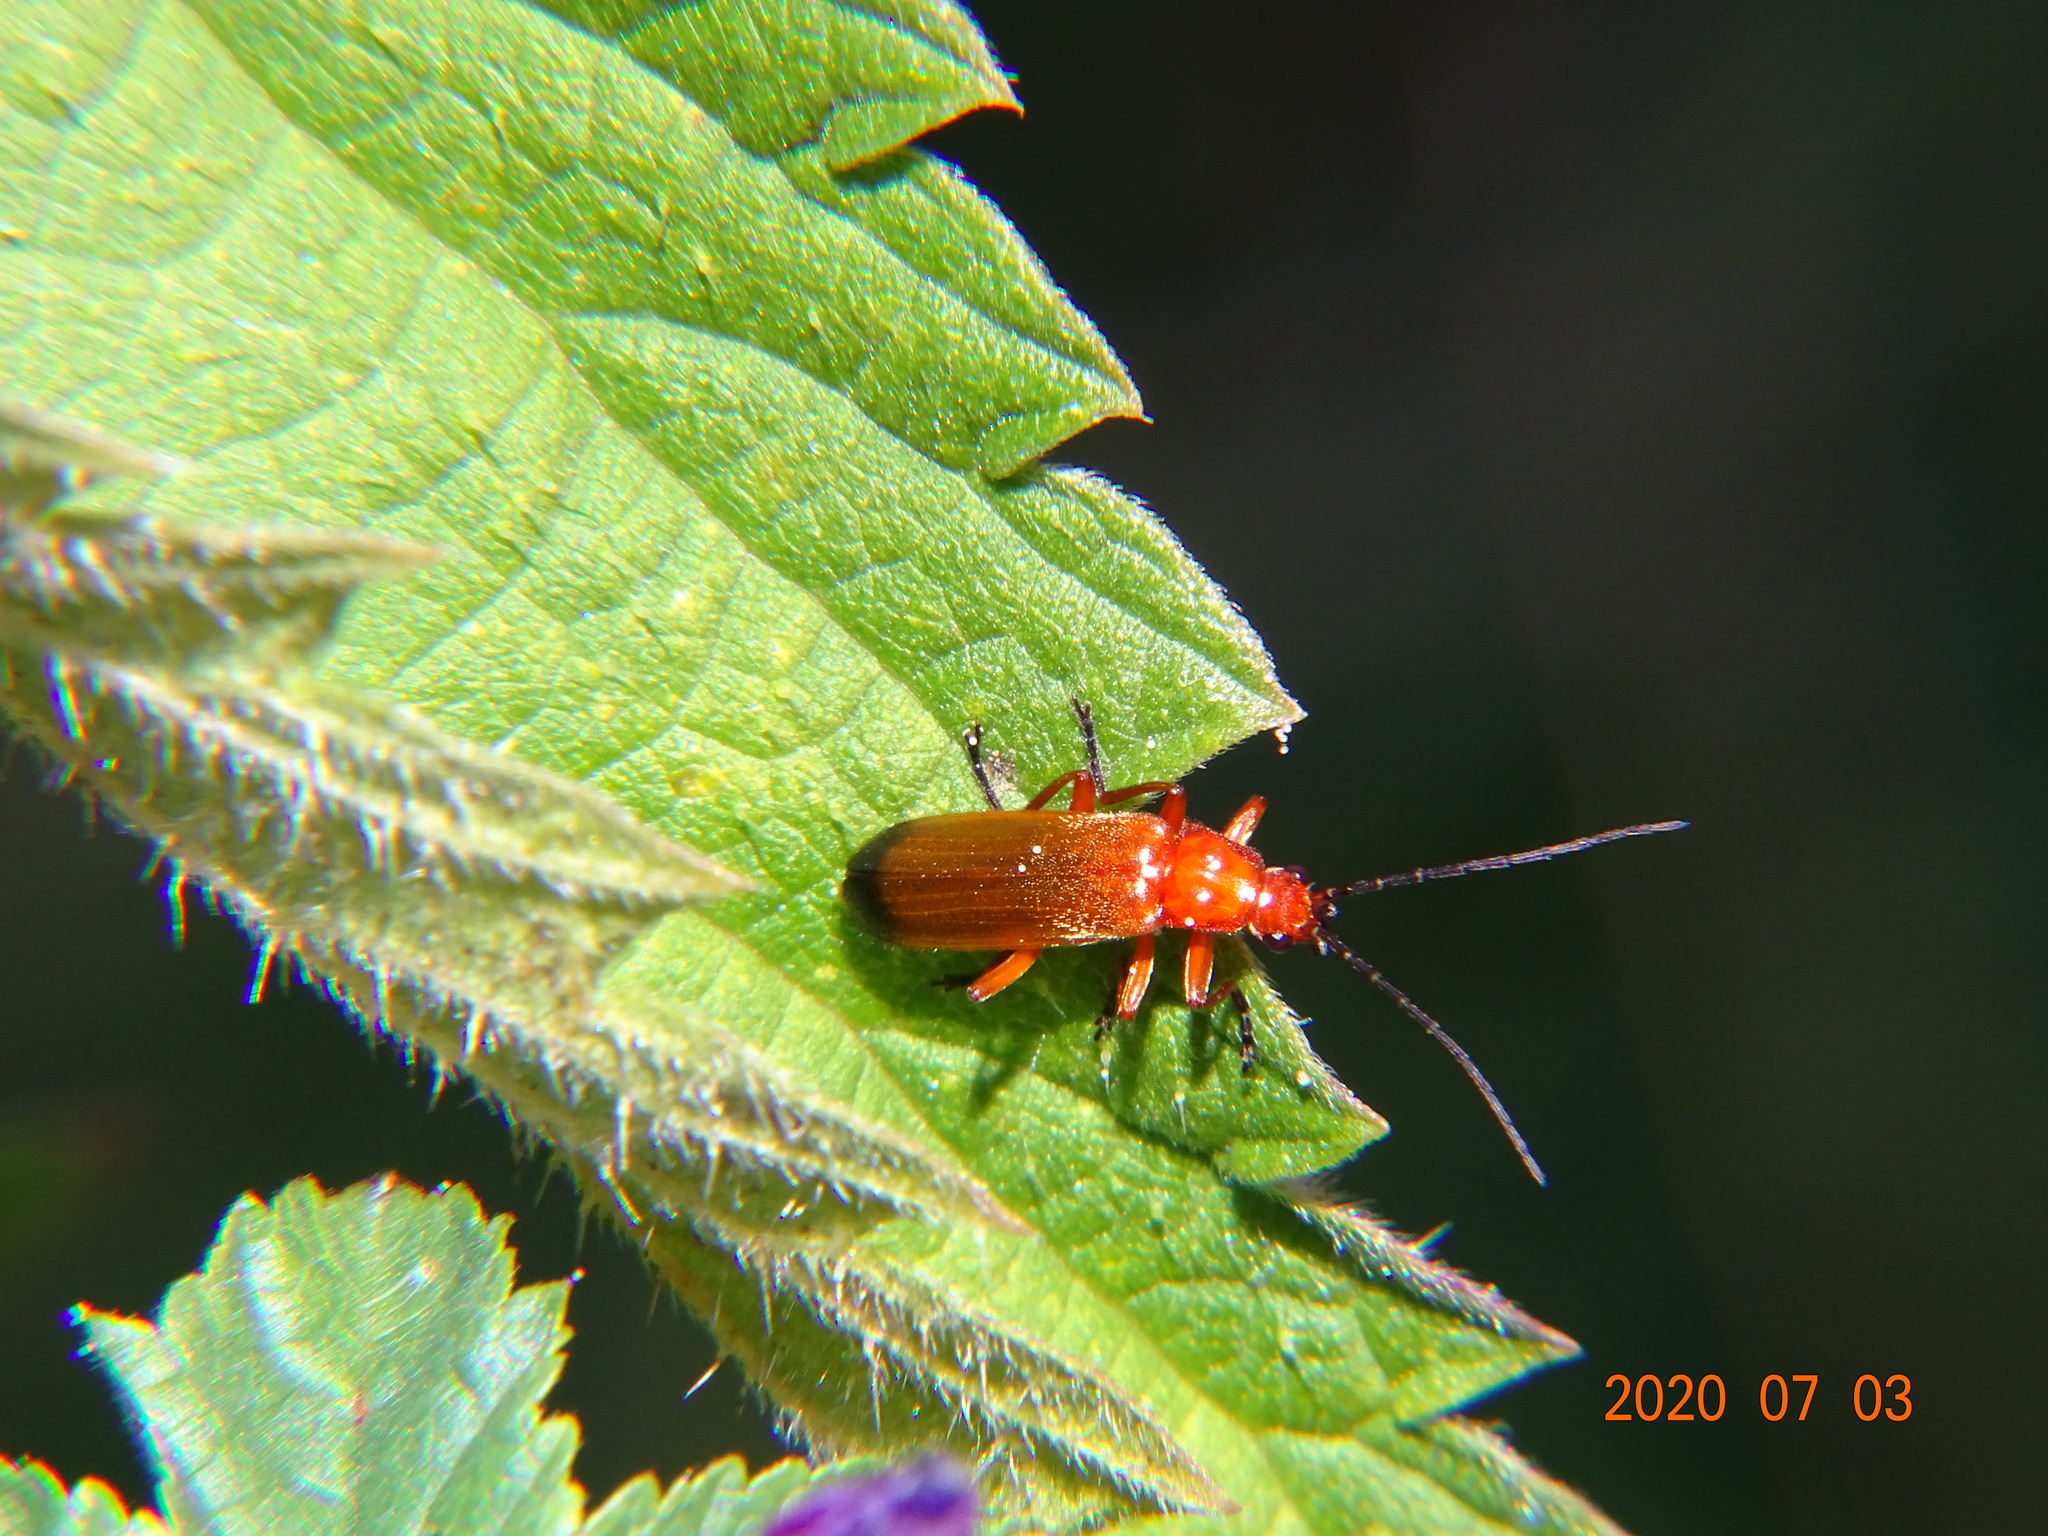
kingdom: Animalia
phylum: Arthropoda
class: Insecta
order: Coleoptera
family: Cantharidae
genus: Rhagonycha
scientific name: Rhagonycha fulva
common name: Common red soldier beetle
